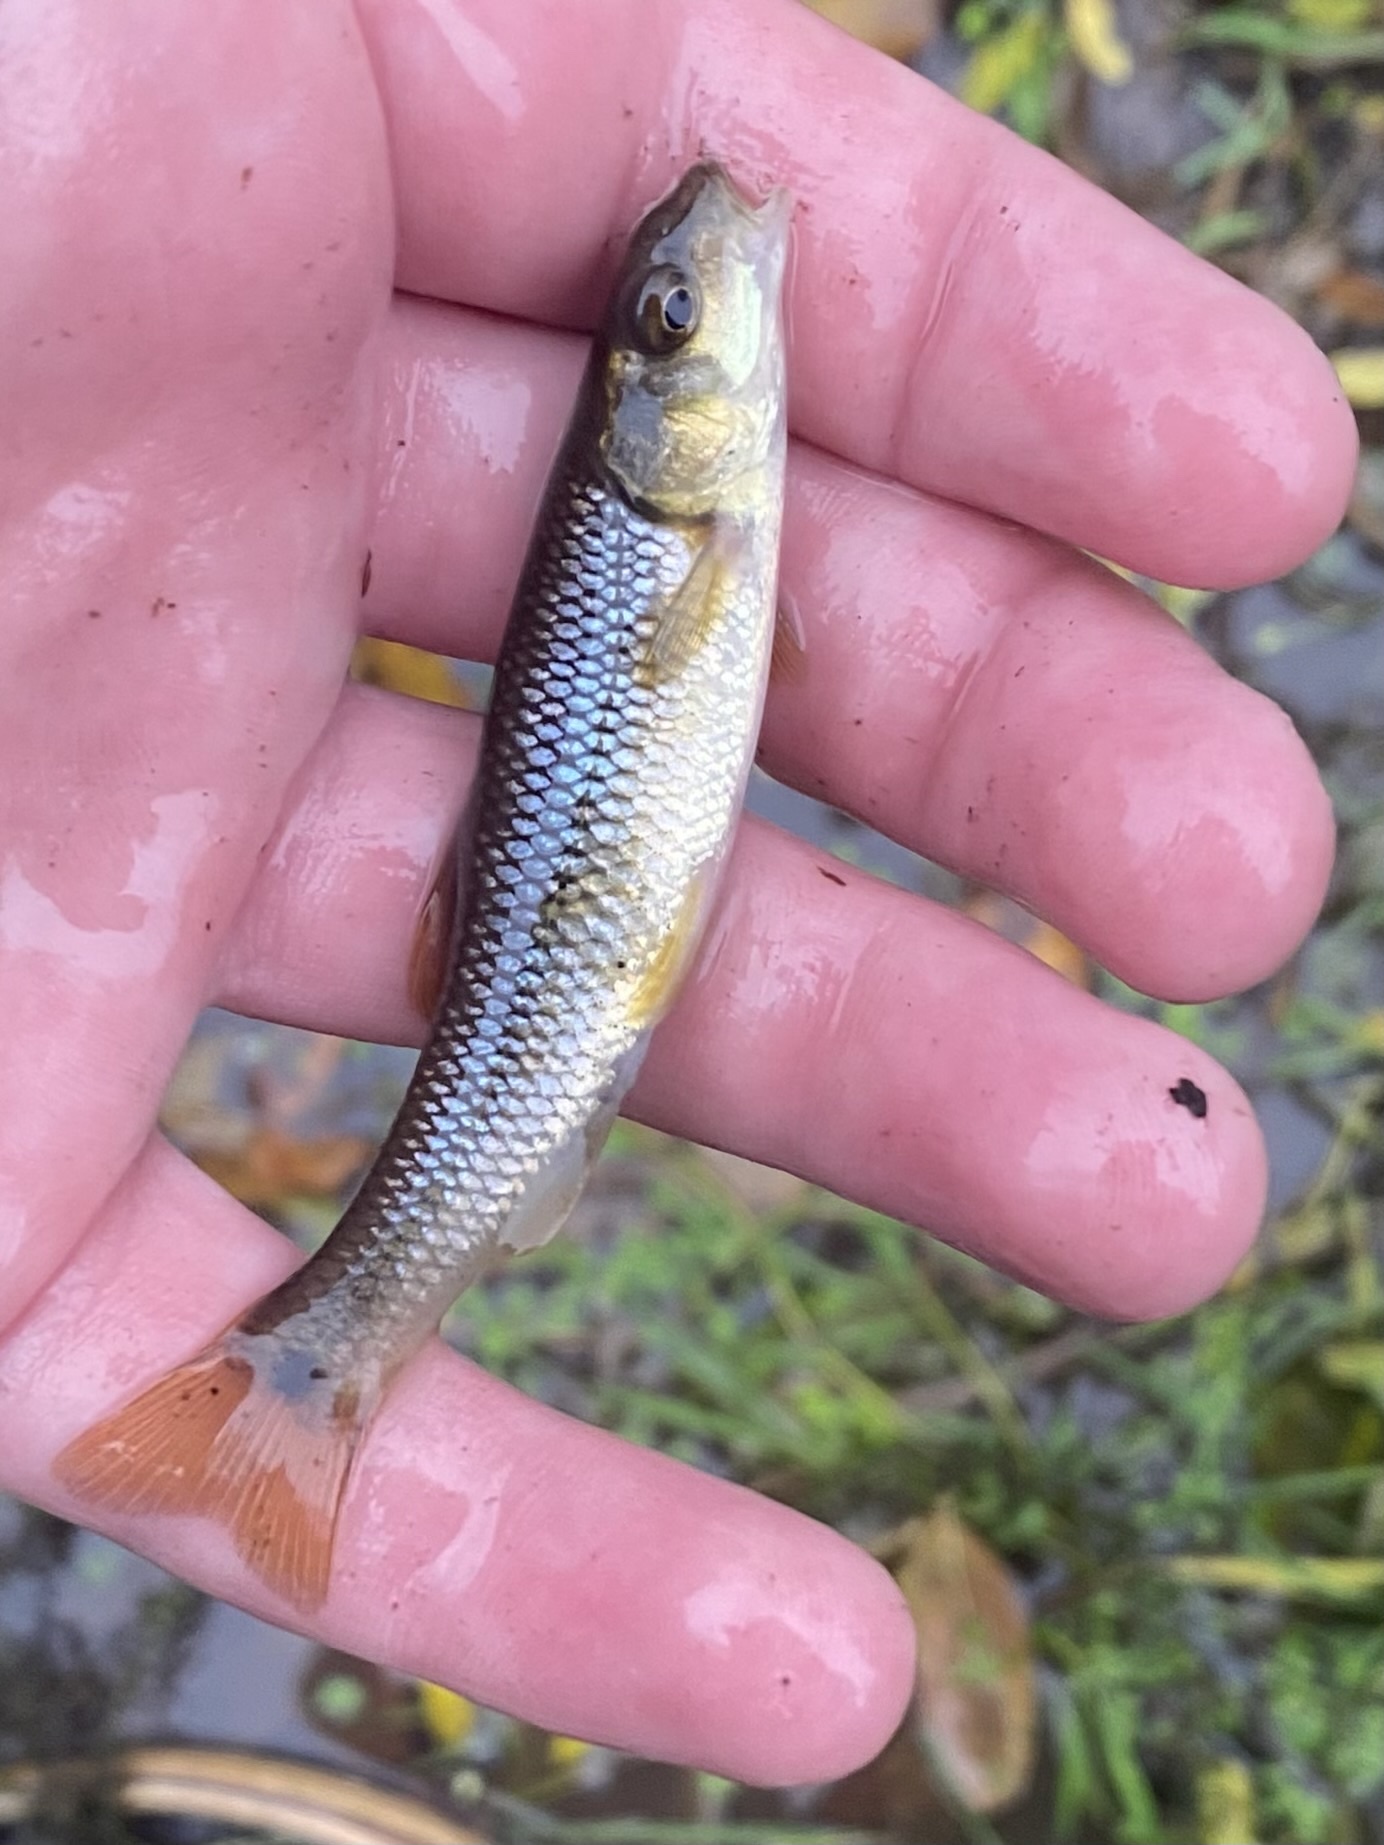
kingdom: Animalia
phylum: Chordata
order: Cypriniformes
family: Cyprinidae
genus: Nocomis
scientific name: Nocomis biguttatus
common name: Hornyhead chub
